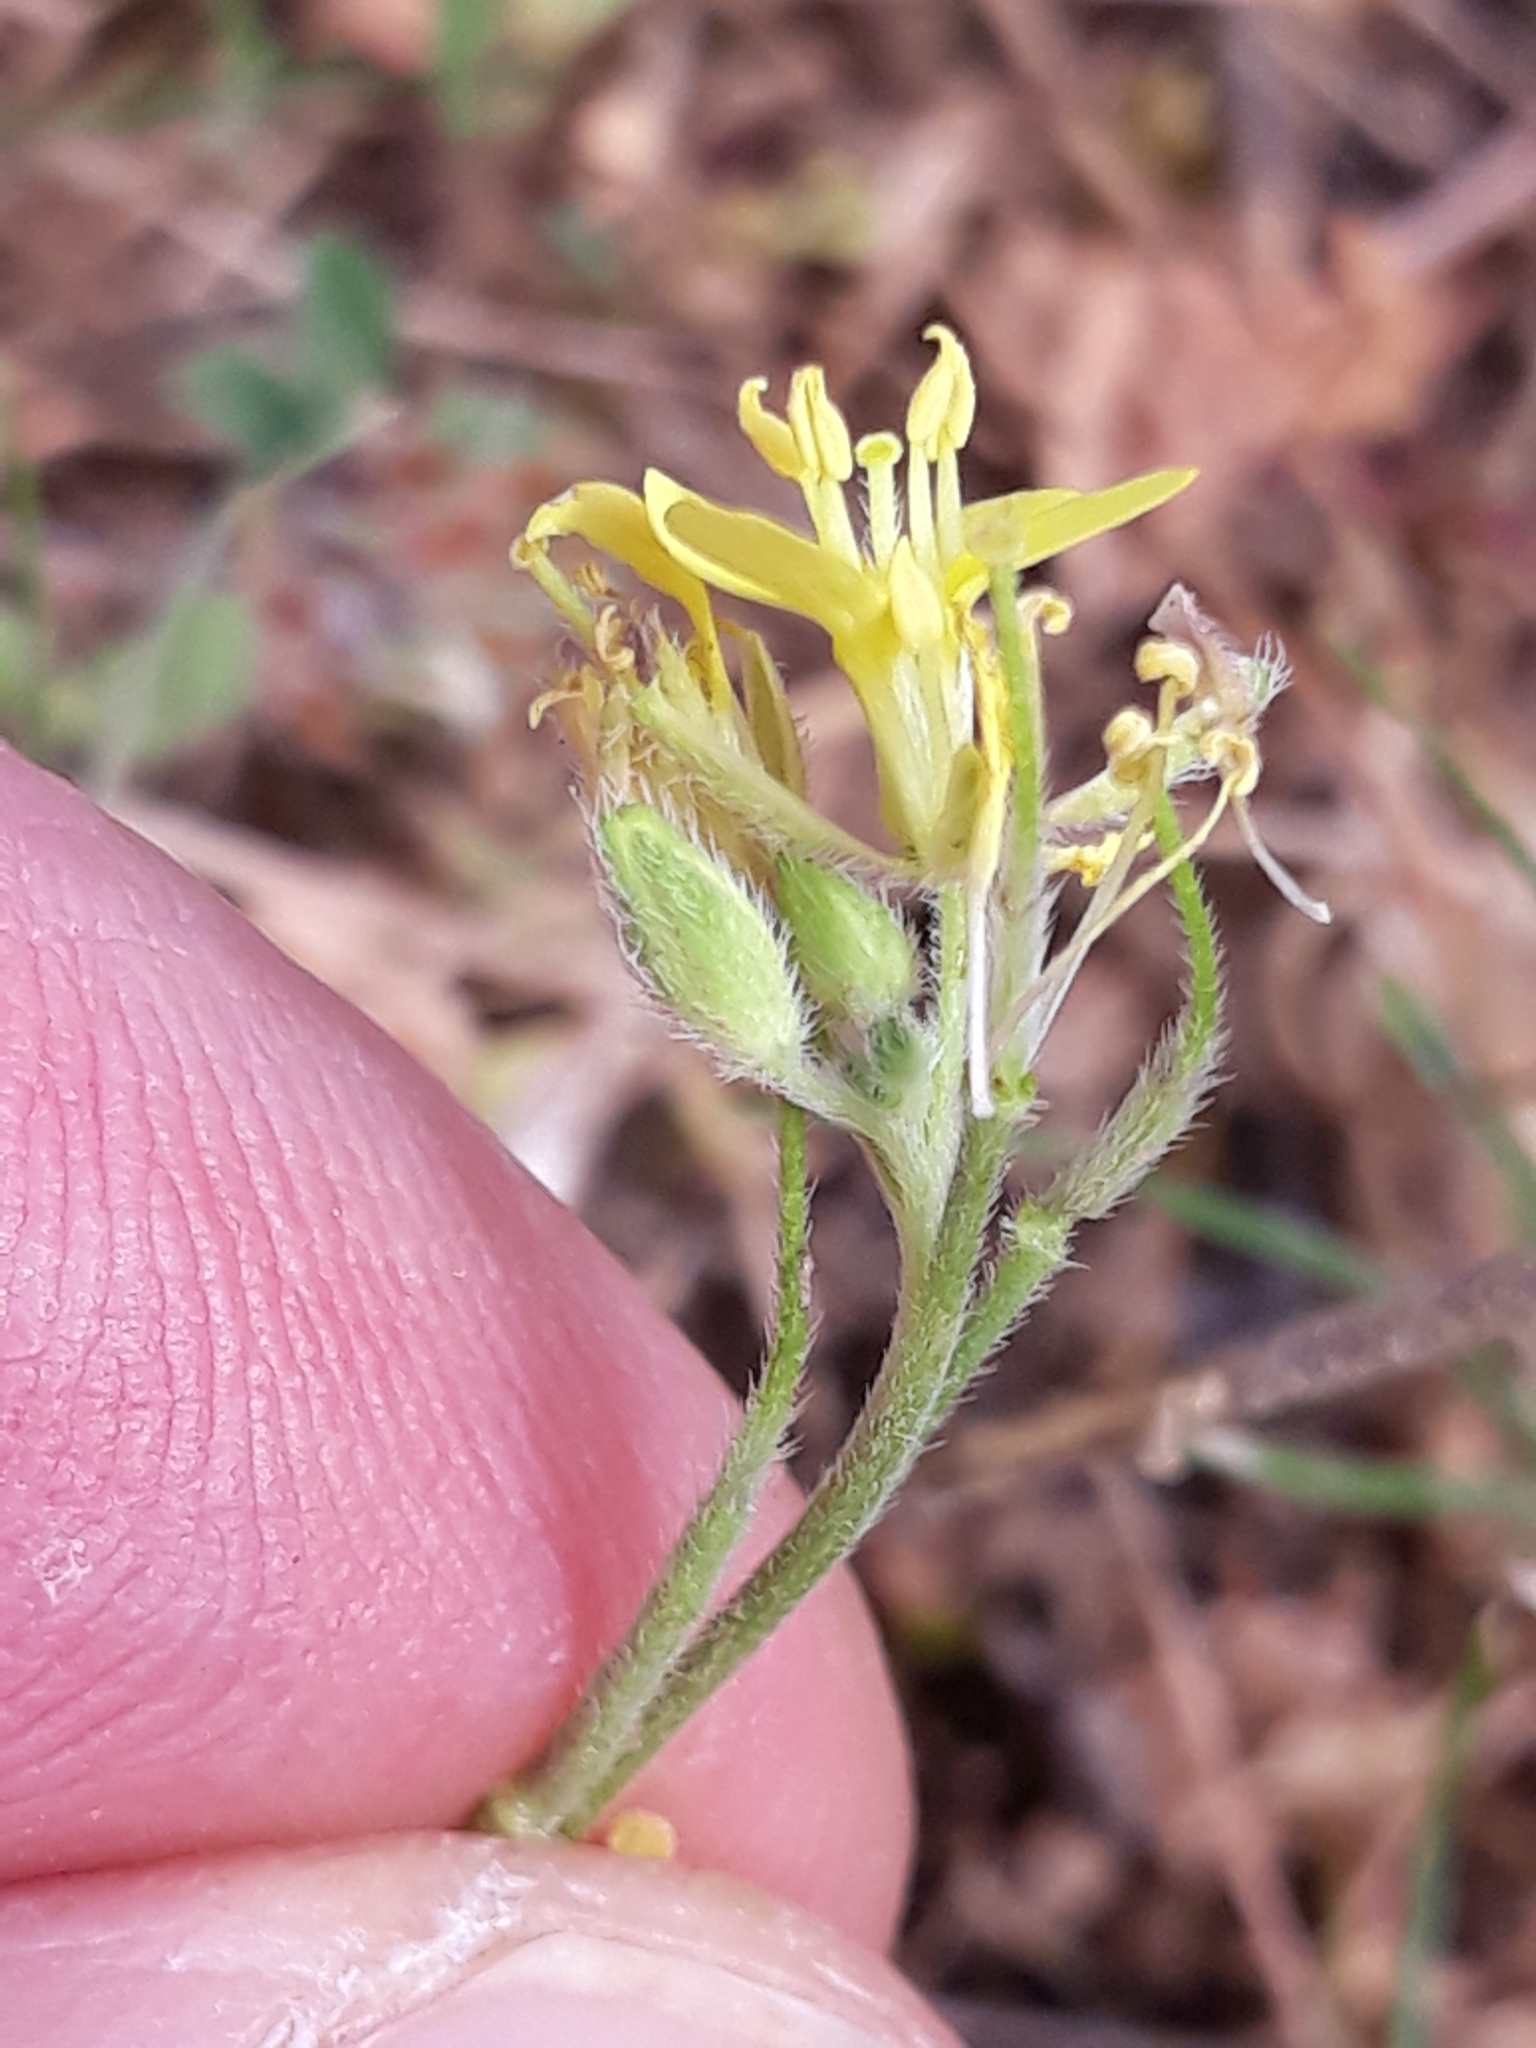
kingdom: Plantae
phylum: Tracheophyta
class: Magnoliopsida
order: Brassicales
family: Brassicaceae
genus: Sinapis
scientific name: Sinapis pubescens
